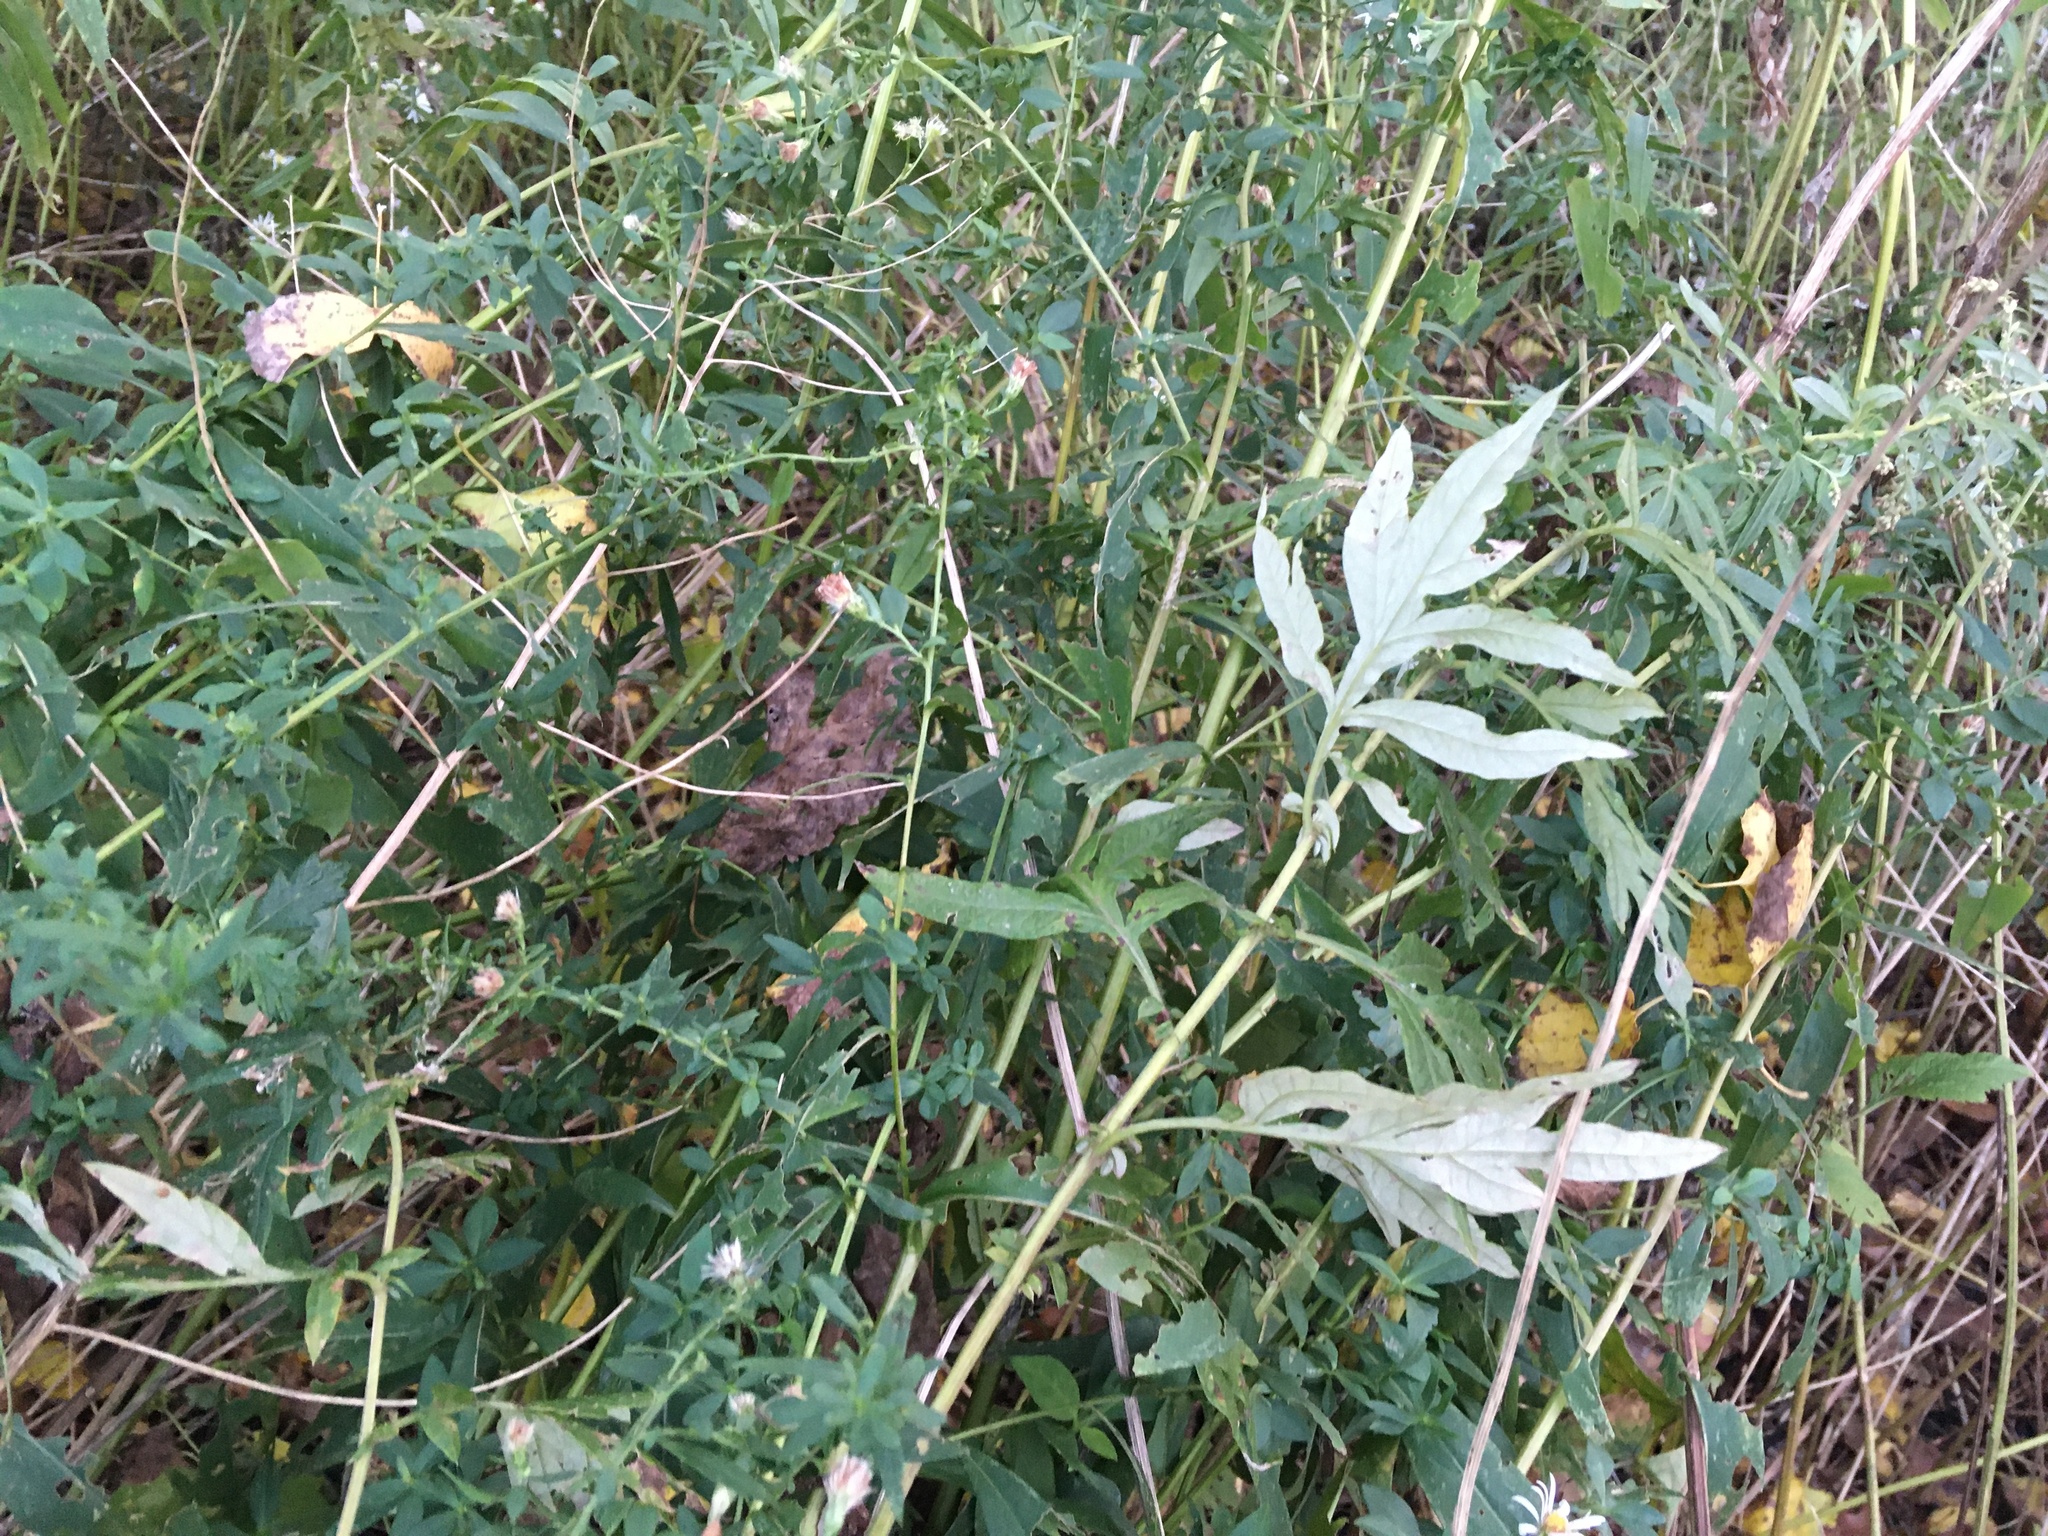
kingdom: Plantae
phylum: Tracheophyta
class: Magnoliopsida
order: Asterales
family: Asteraceae
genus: Artemisia
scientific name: Artemisia vulgaris
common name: Mugwort
